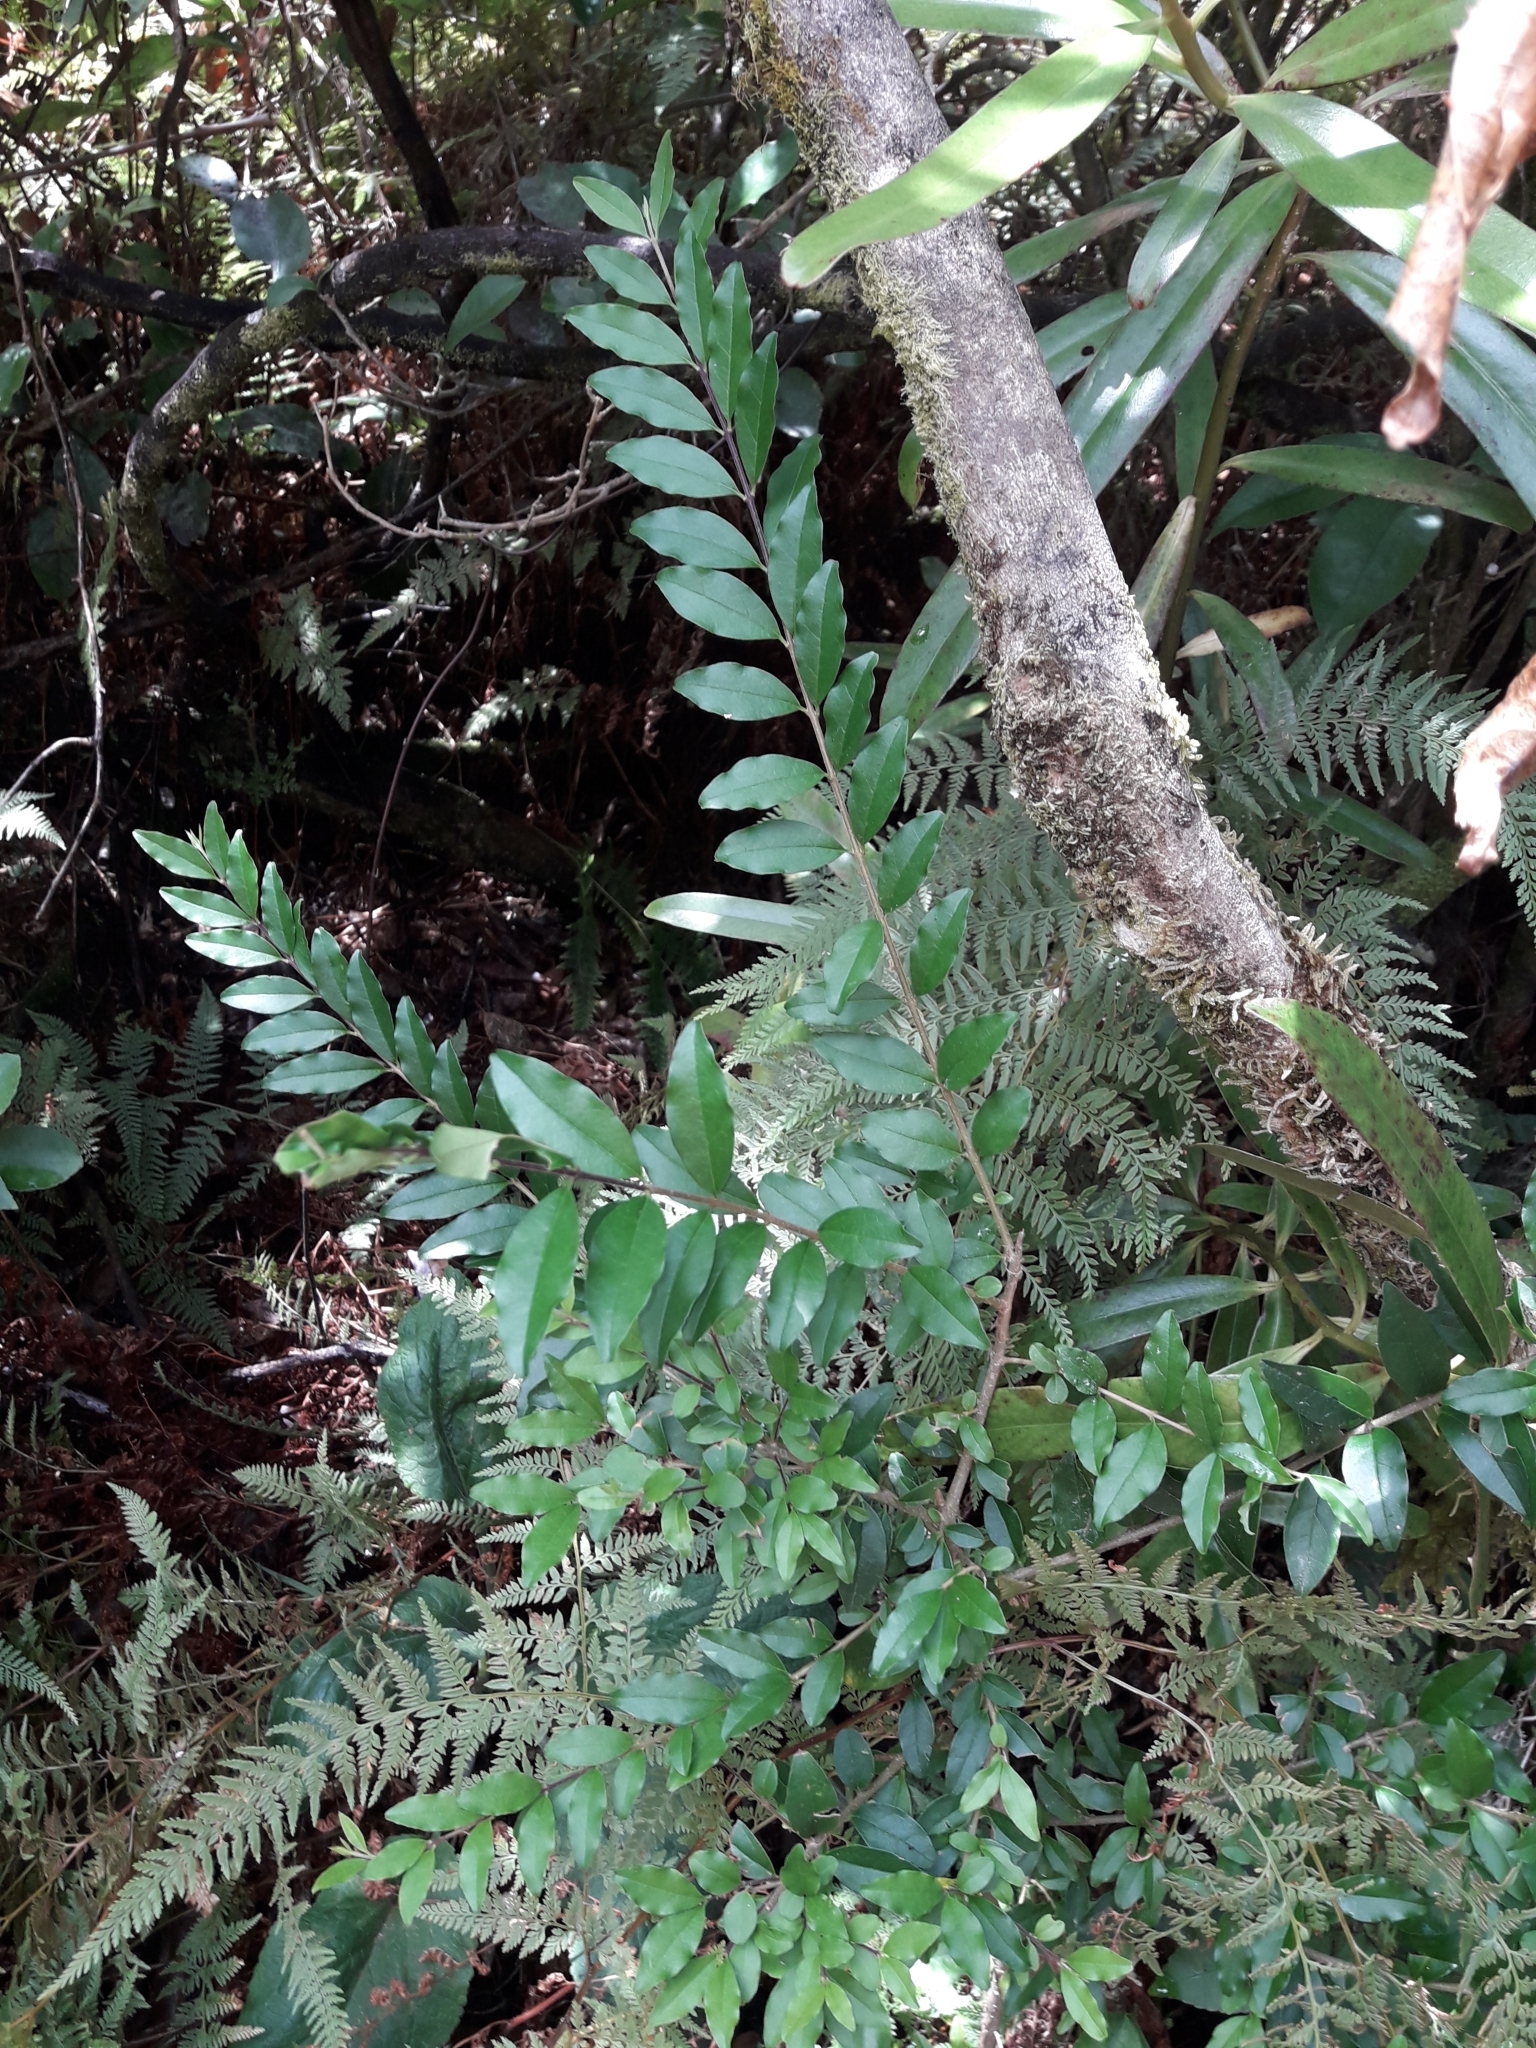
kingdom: Plantae
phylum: Tracheophyta
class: Magnoliopsida
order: Lamiales
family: Oleaceae
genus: Ligustrum
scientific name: Ligustrum sinense
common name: Chinese privet
